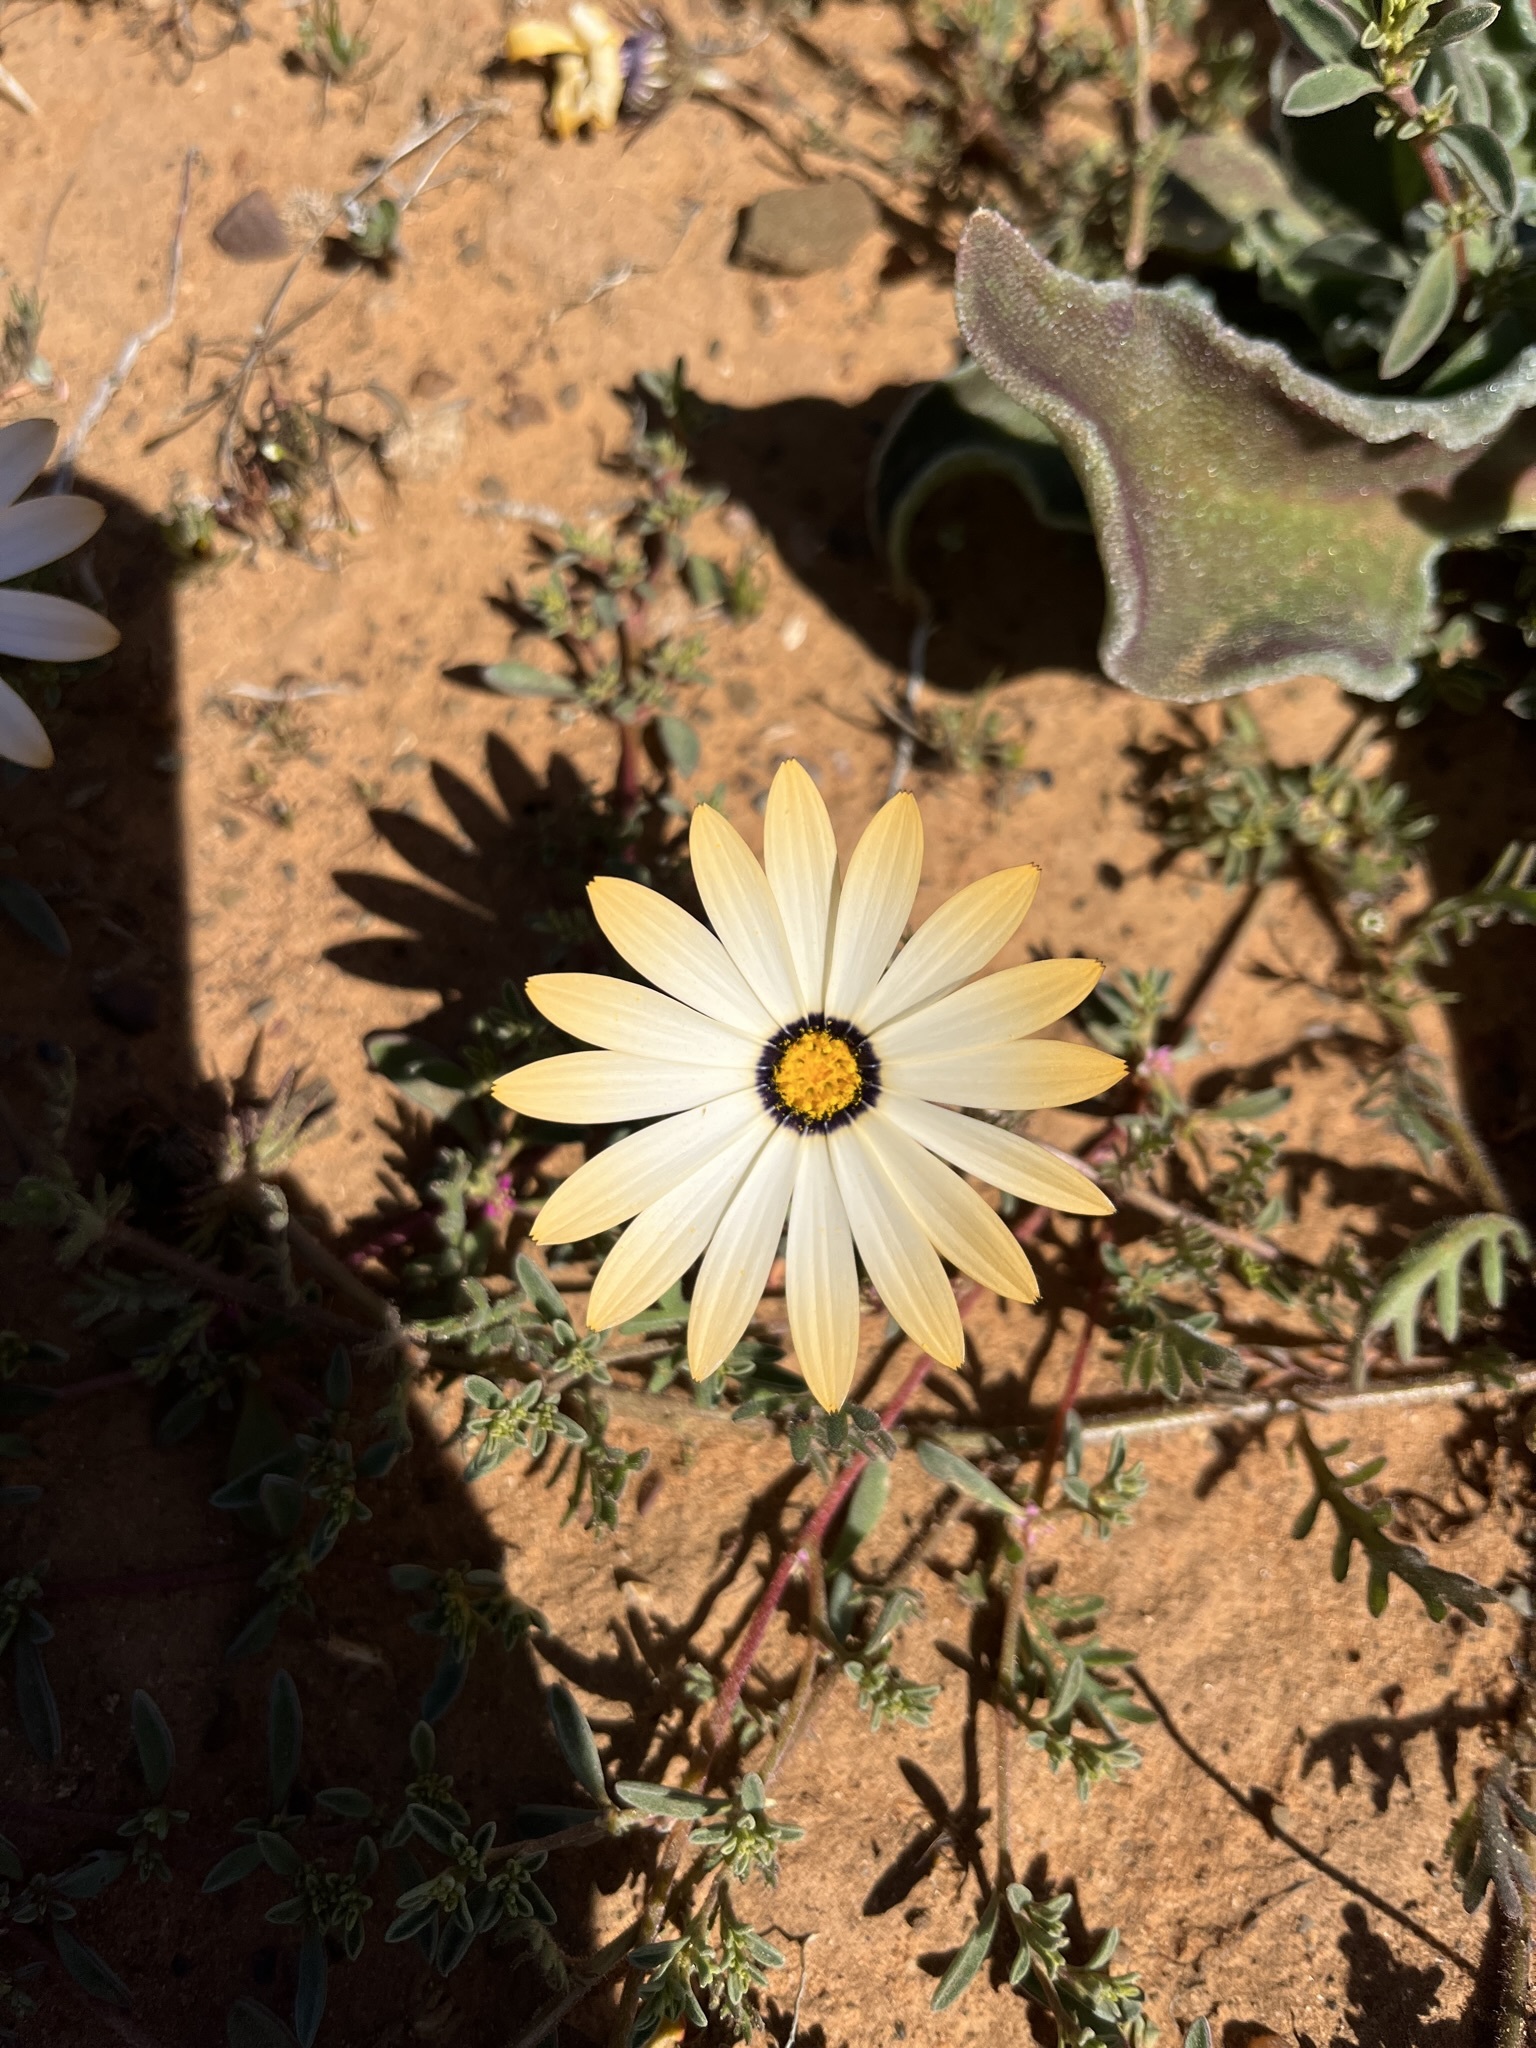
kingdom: Plantae
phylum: Tracheophyta
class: Magnoliopsida
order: Asterales
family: Asteraceae
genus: Dimorphotheca
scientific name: Dimorphotheca pinnata
